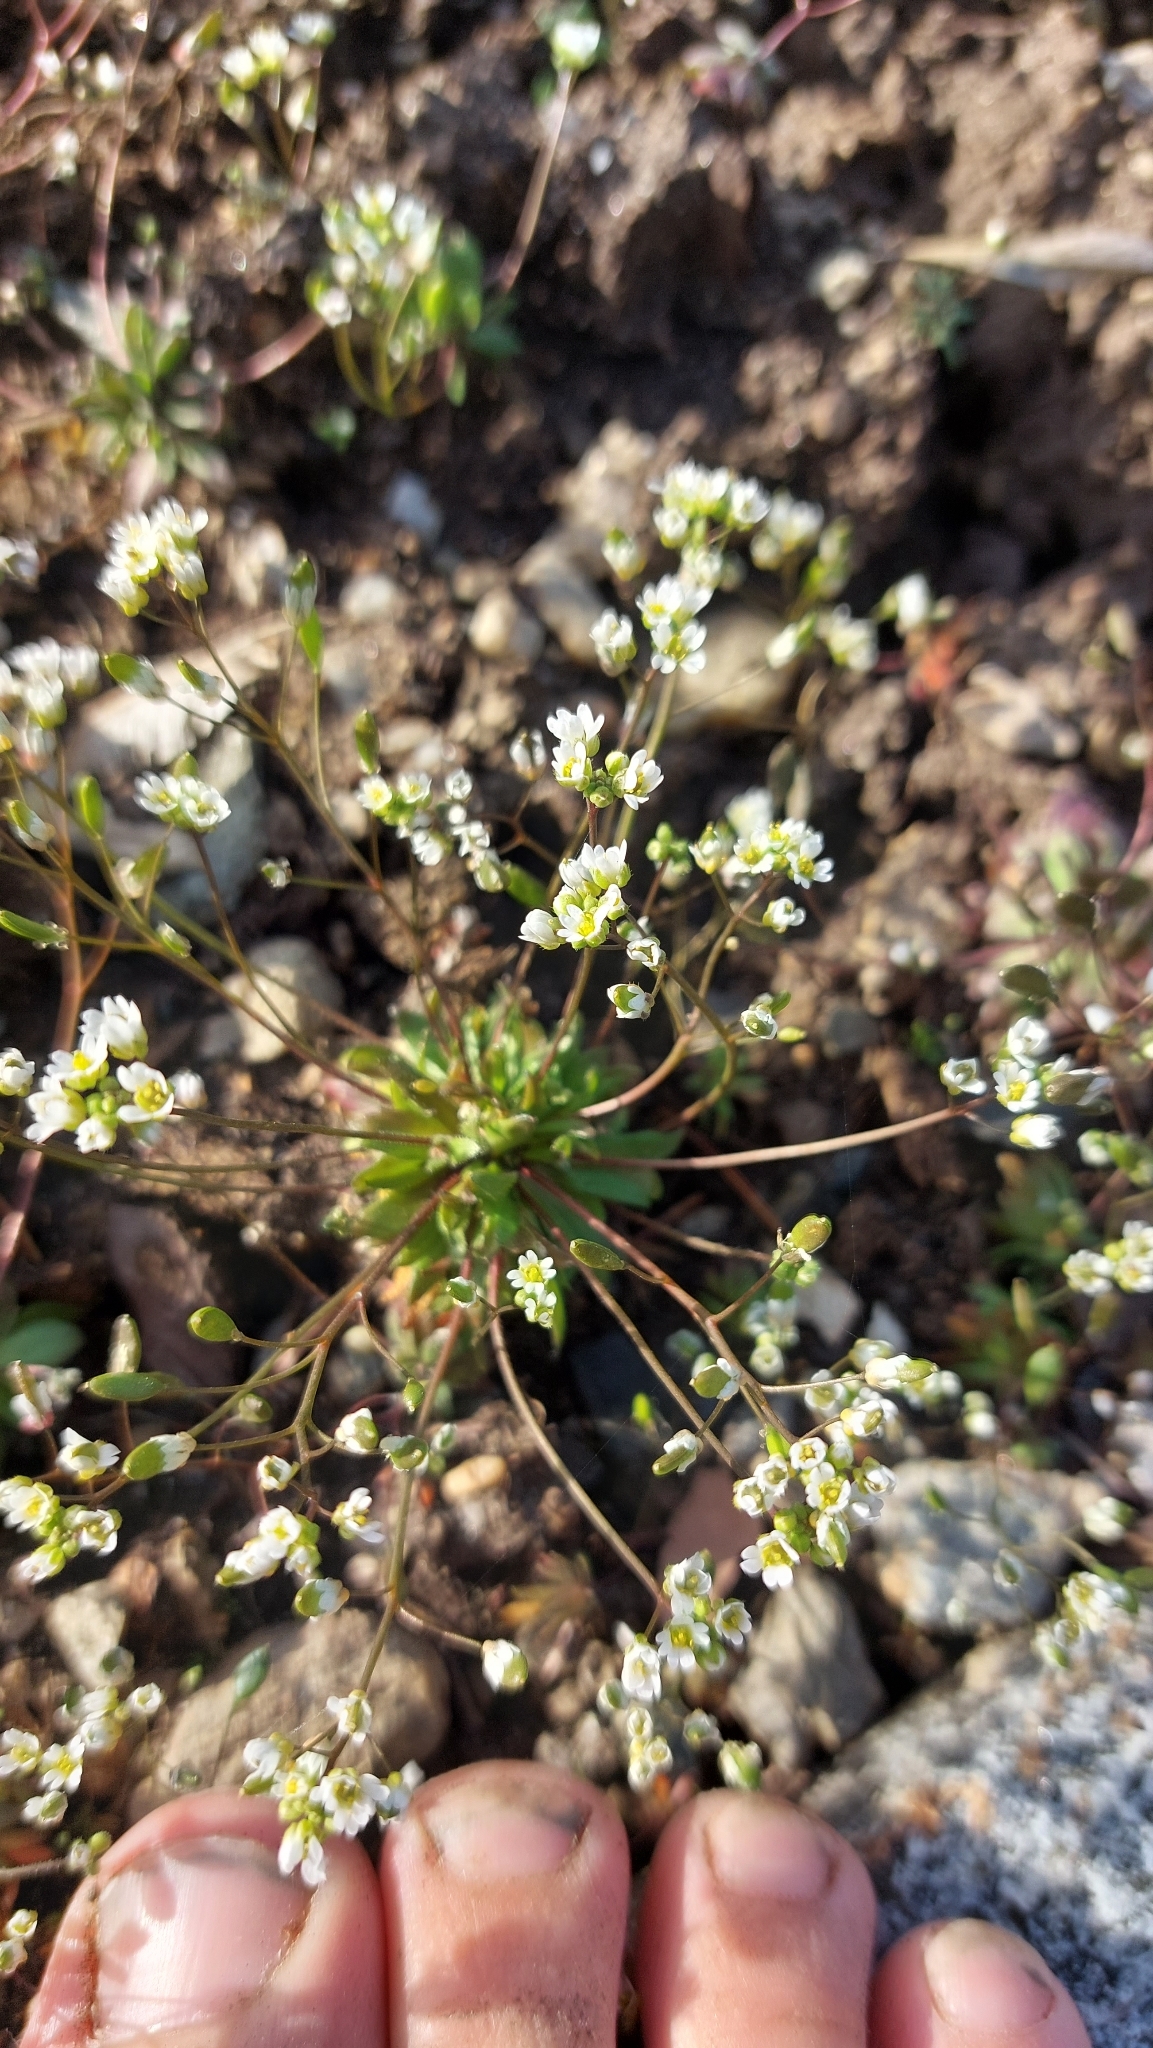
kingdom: Plantae
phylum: Tracheophyta
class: Magnoliopsida
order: Brassicales
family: Brassicaceae
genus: Draba
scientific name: Draba verna
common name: Spring draba
